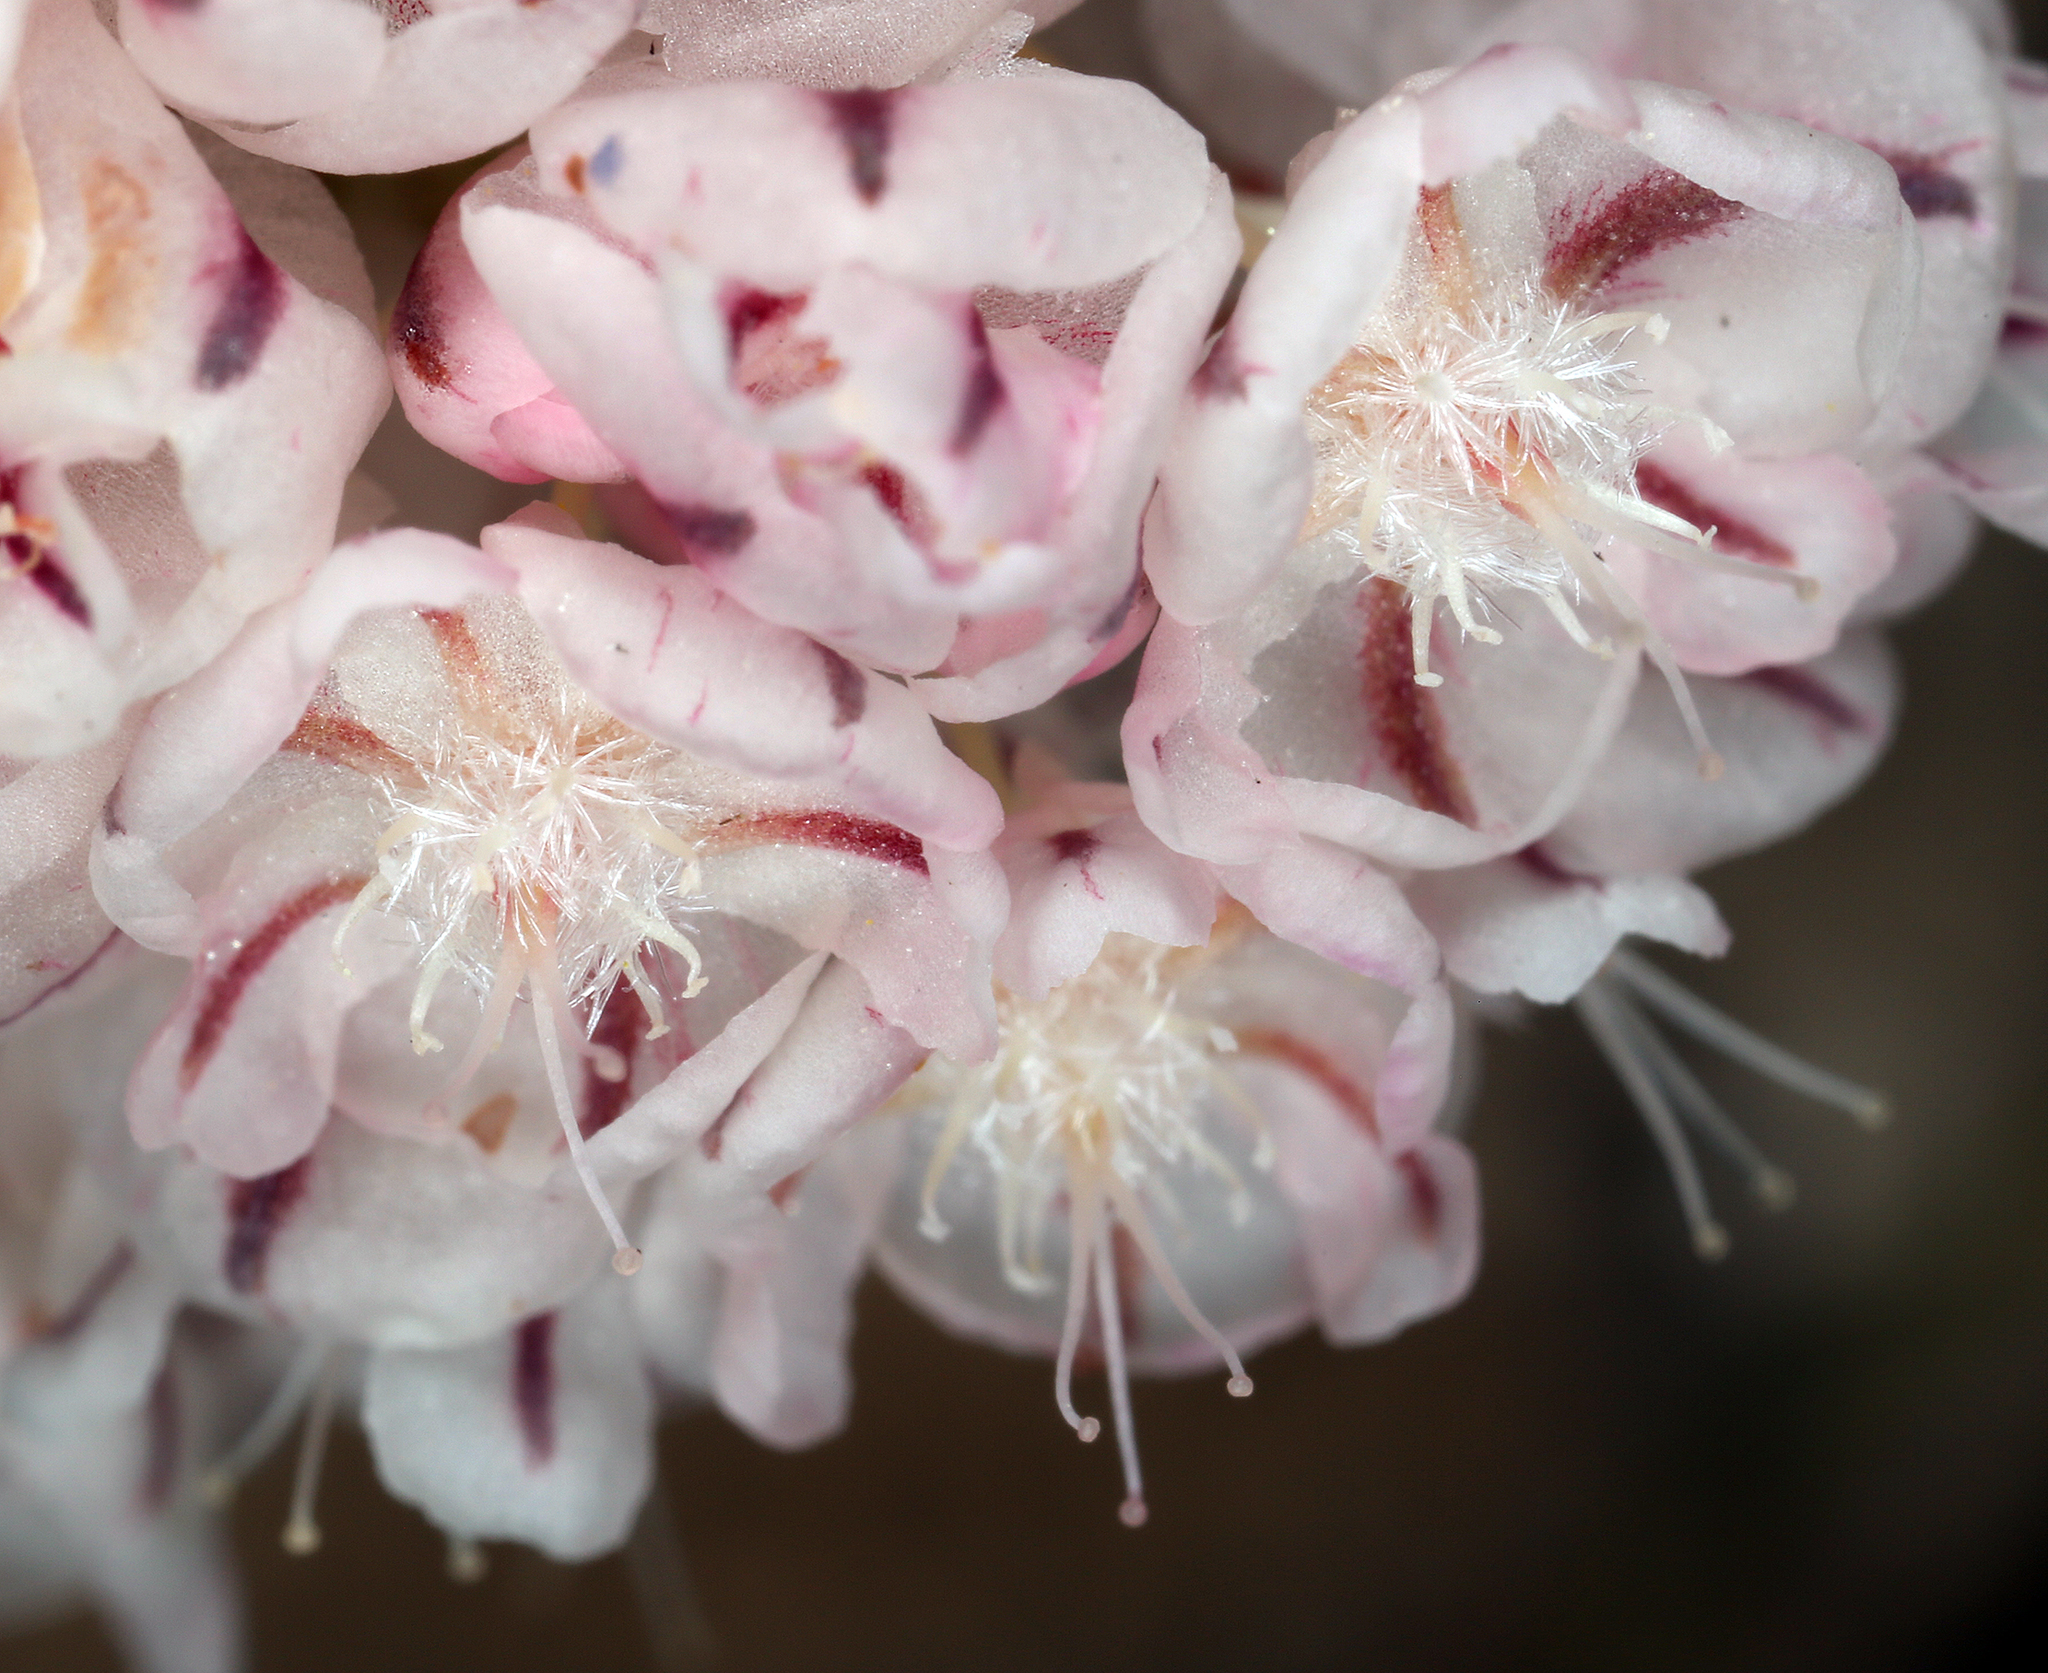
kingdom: Plantae
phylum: Tracheophyta
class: Magnoliopsida
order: Caryophyllales
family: Polygonaceae
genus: Eriogonum
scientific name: Eriogonum ovalifolium
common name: Cushion buckwheat
